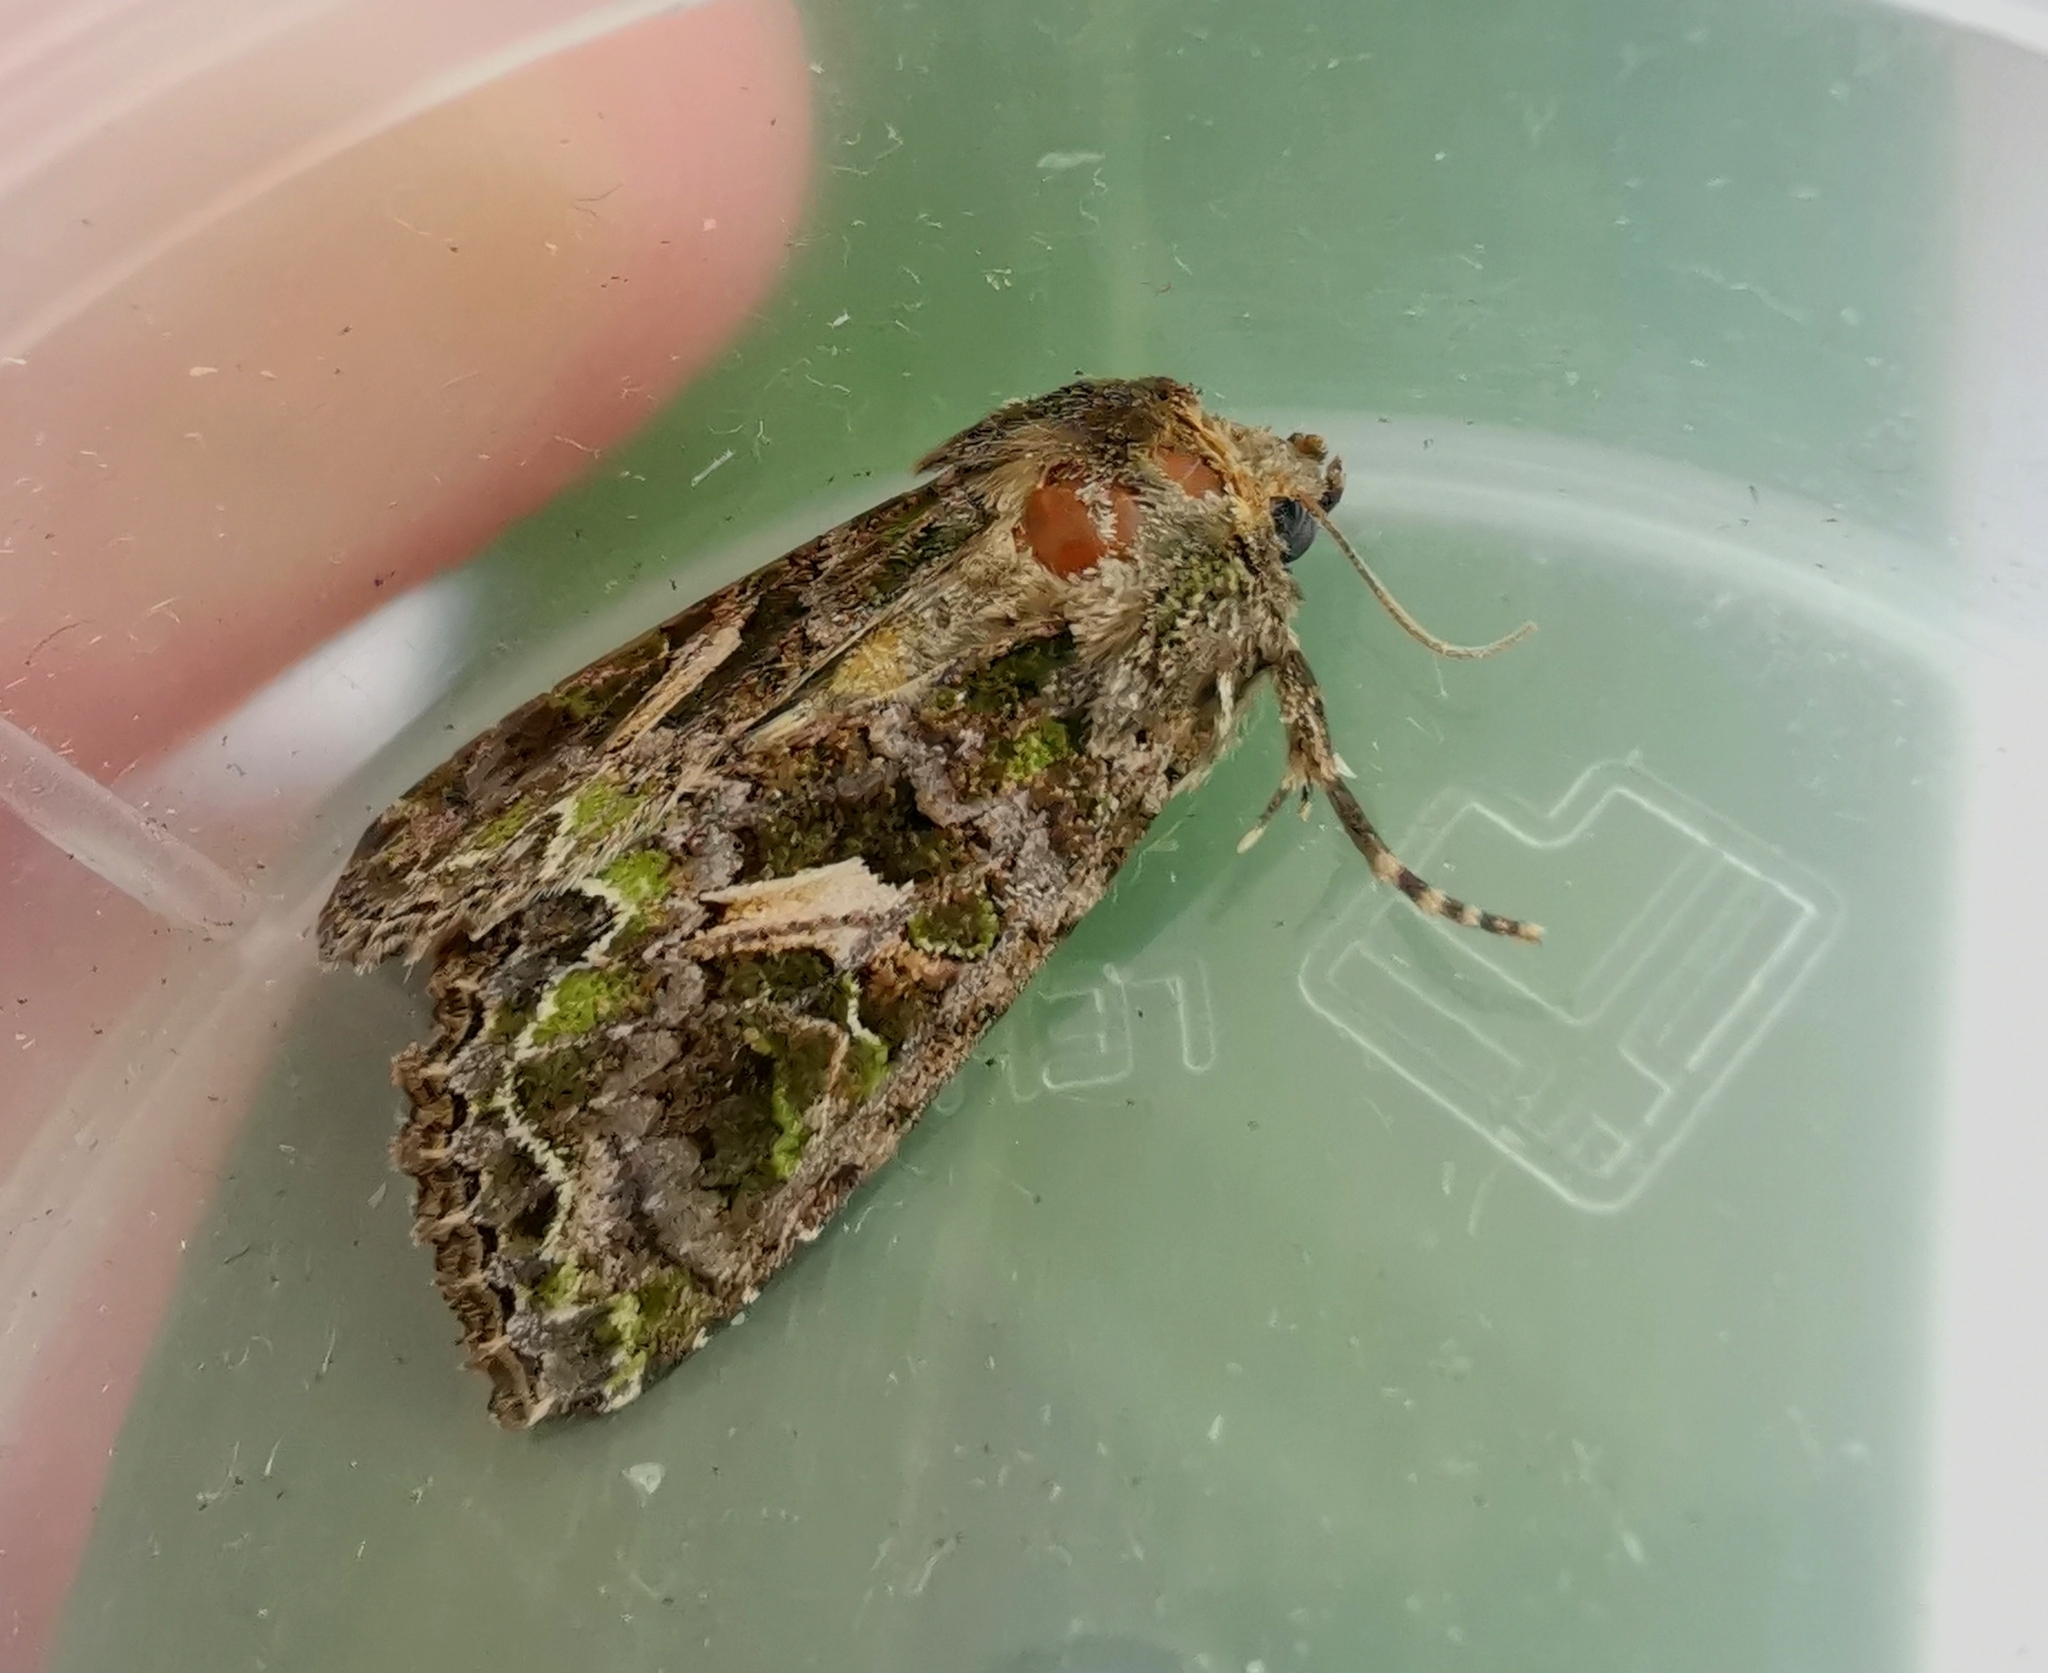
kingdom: Animalia
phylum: Arthropoda
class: Insecta
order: Lepidoptera
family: Noctuidae
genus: Trachea
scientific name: Trachea atriplicis
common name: Orache moth
